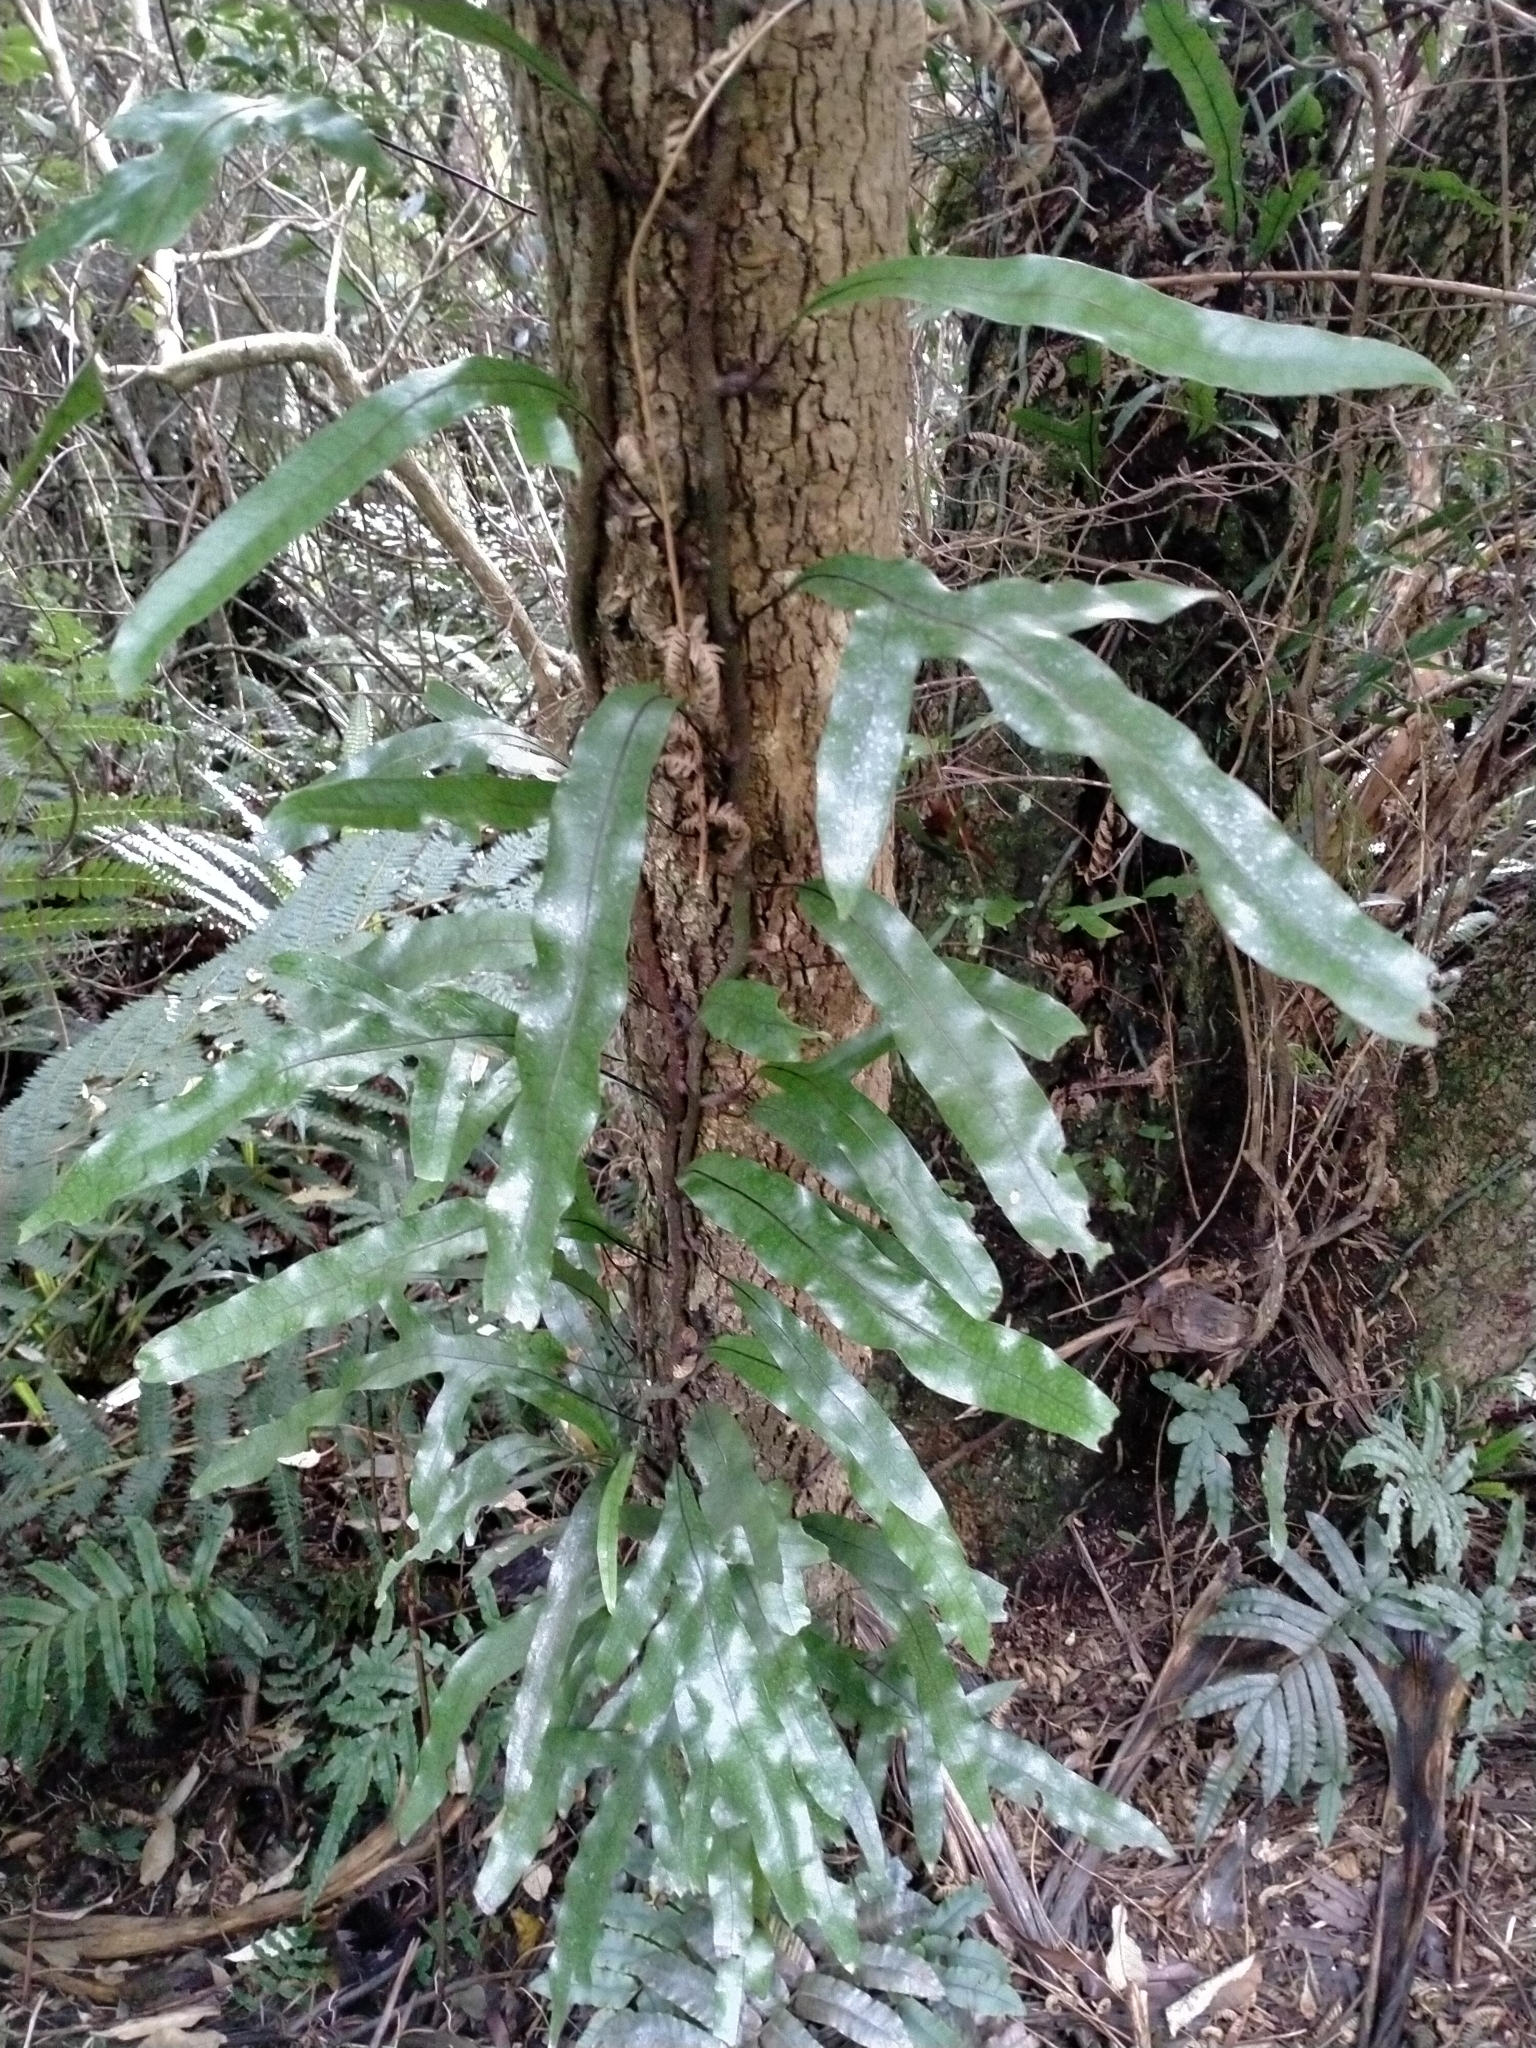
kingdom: Plantae
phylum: Tracheophyta
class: Polypodiopsida
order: Polypodiales
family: Polypodiaceae
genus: Lecanopteris
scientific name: Lecanopteris pustulata
